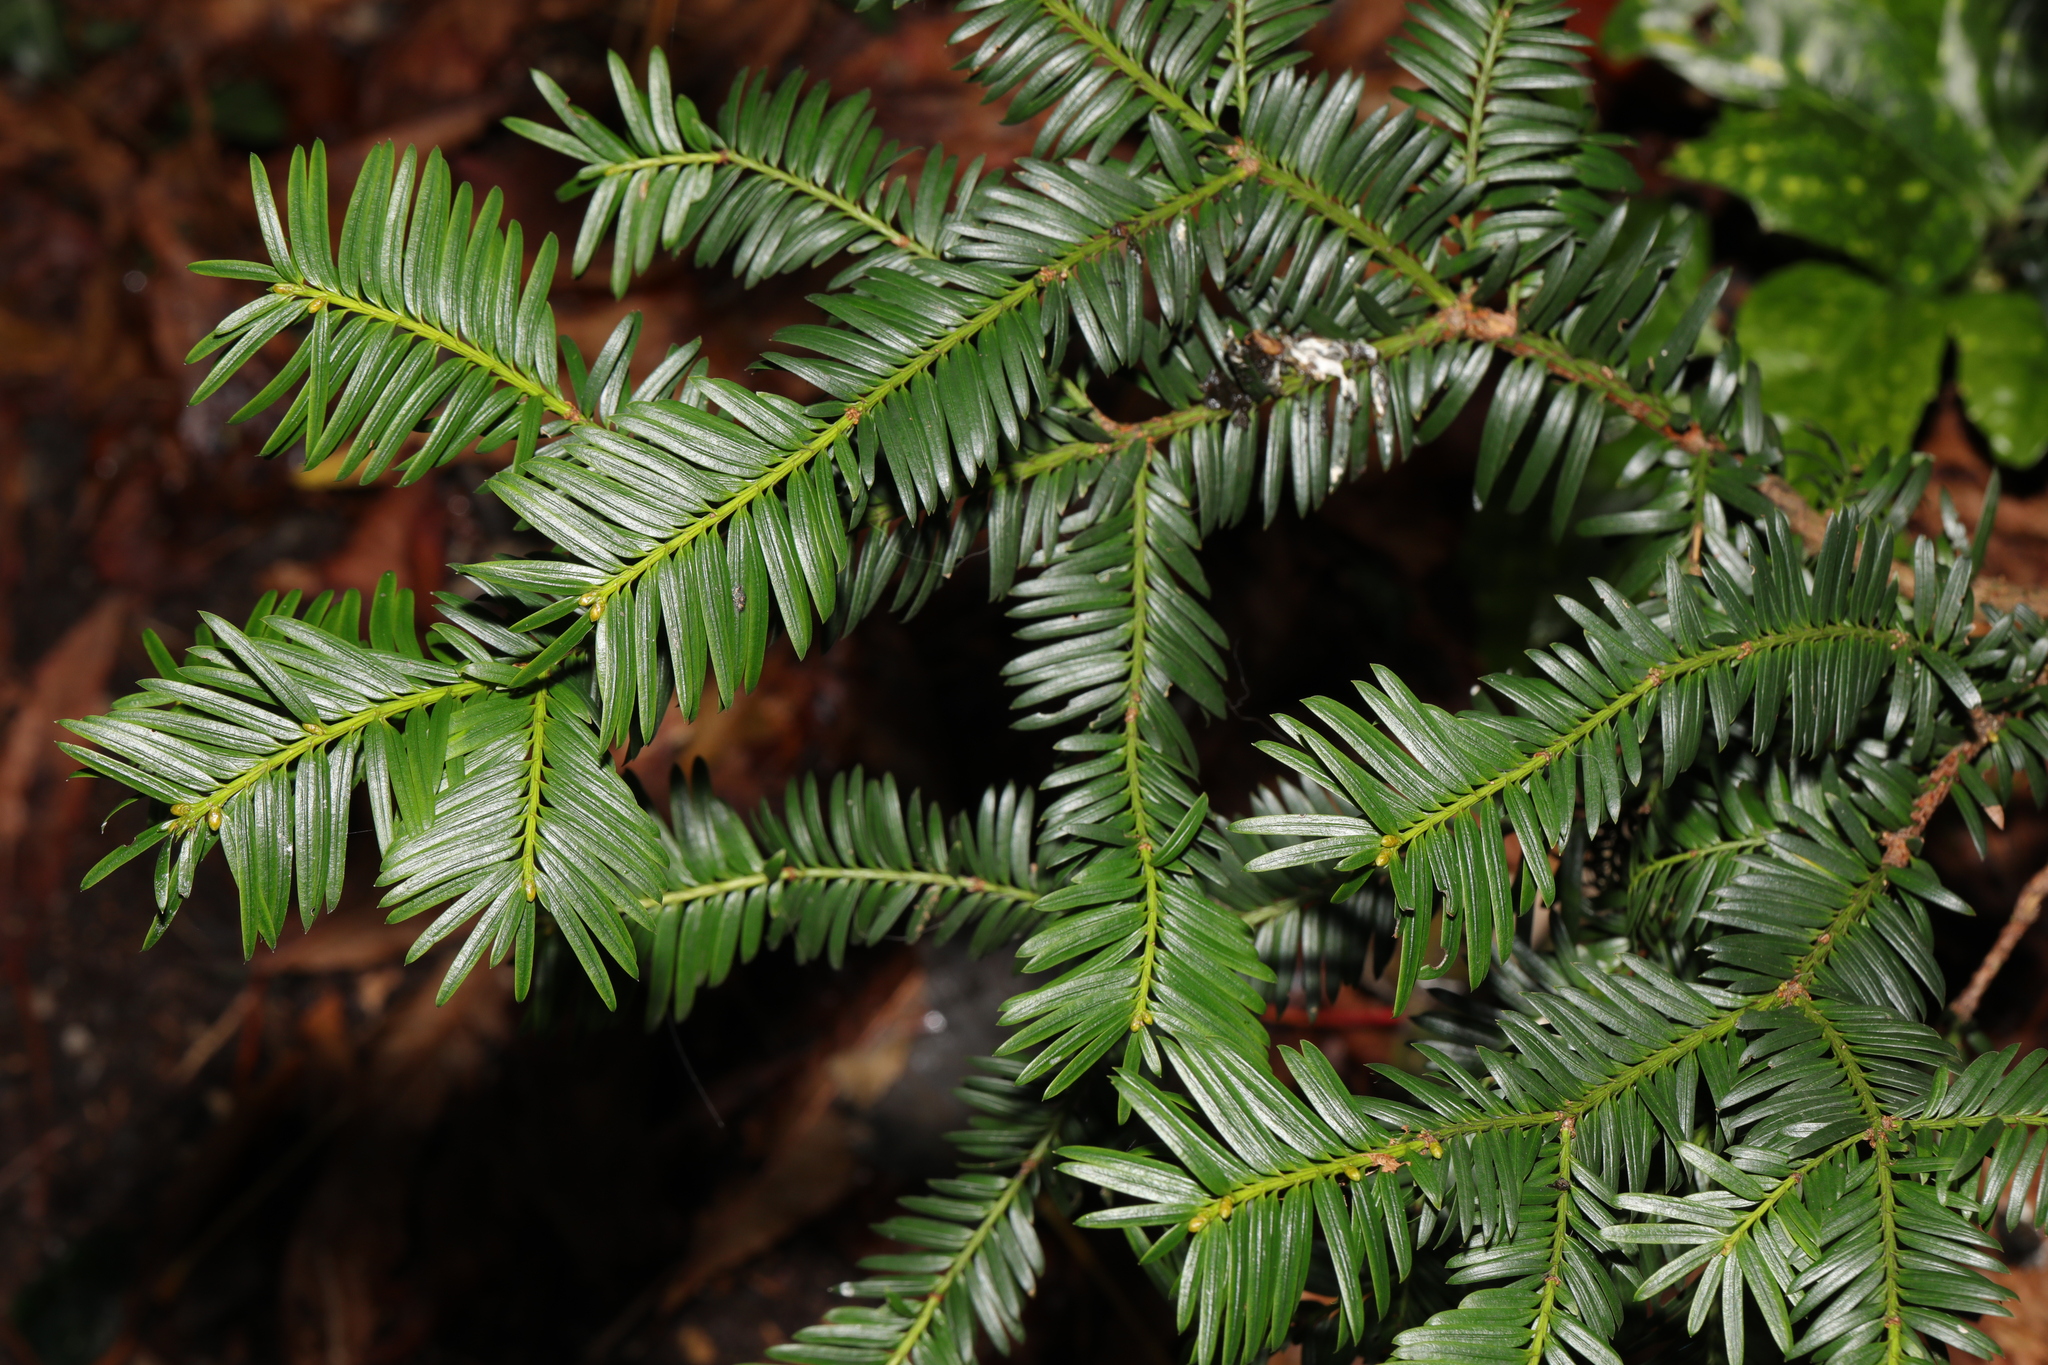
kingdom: Plantae
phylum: Tracheophyta
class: Pinopsida
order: Pinales
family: Taxaceae
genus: Taxus
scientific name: Taxus baccata
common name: Yew
